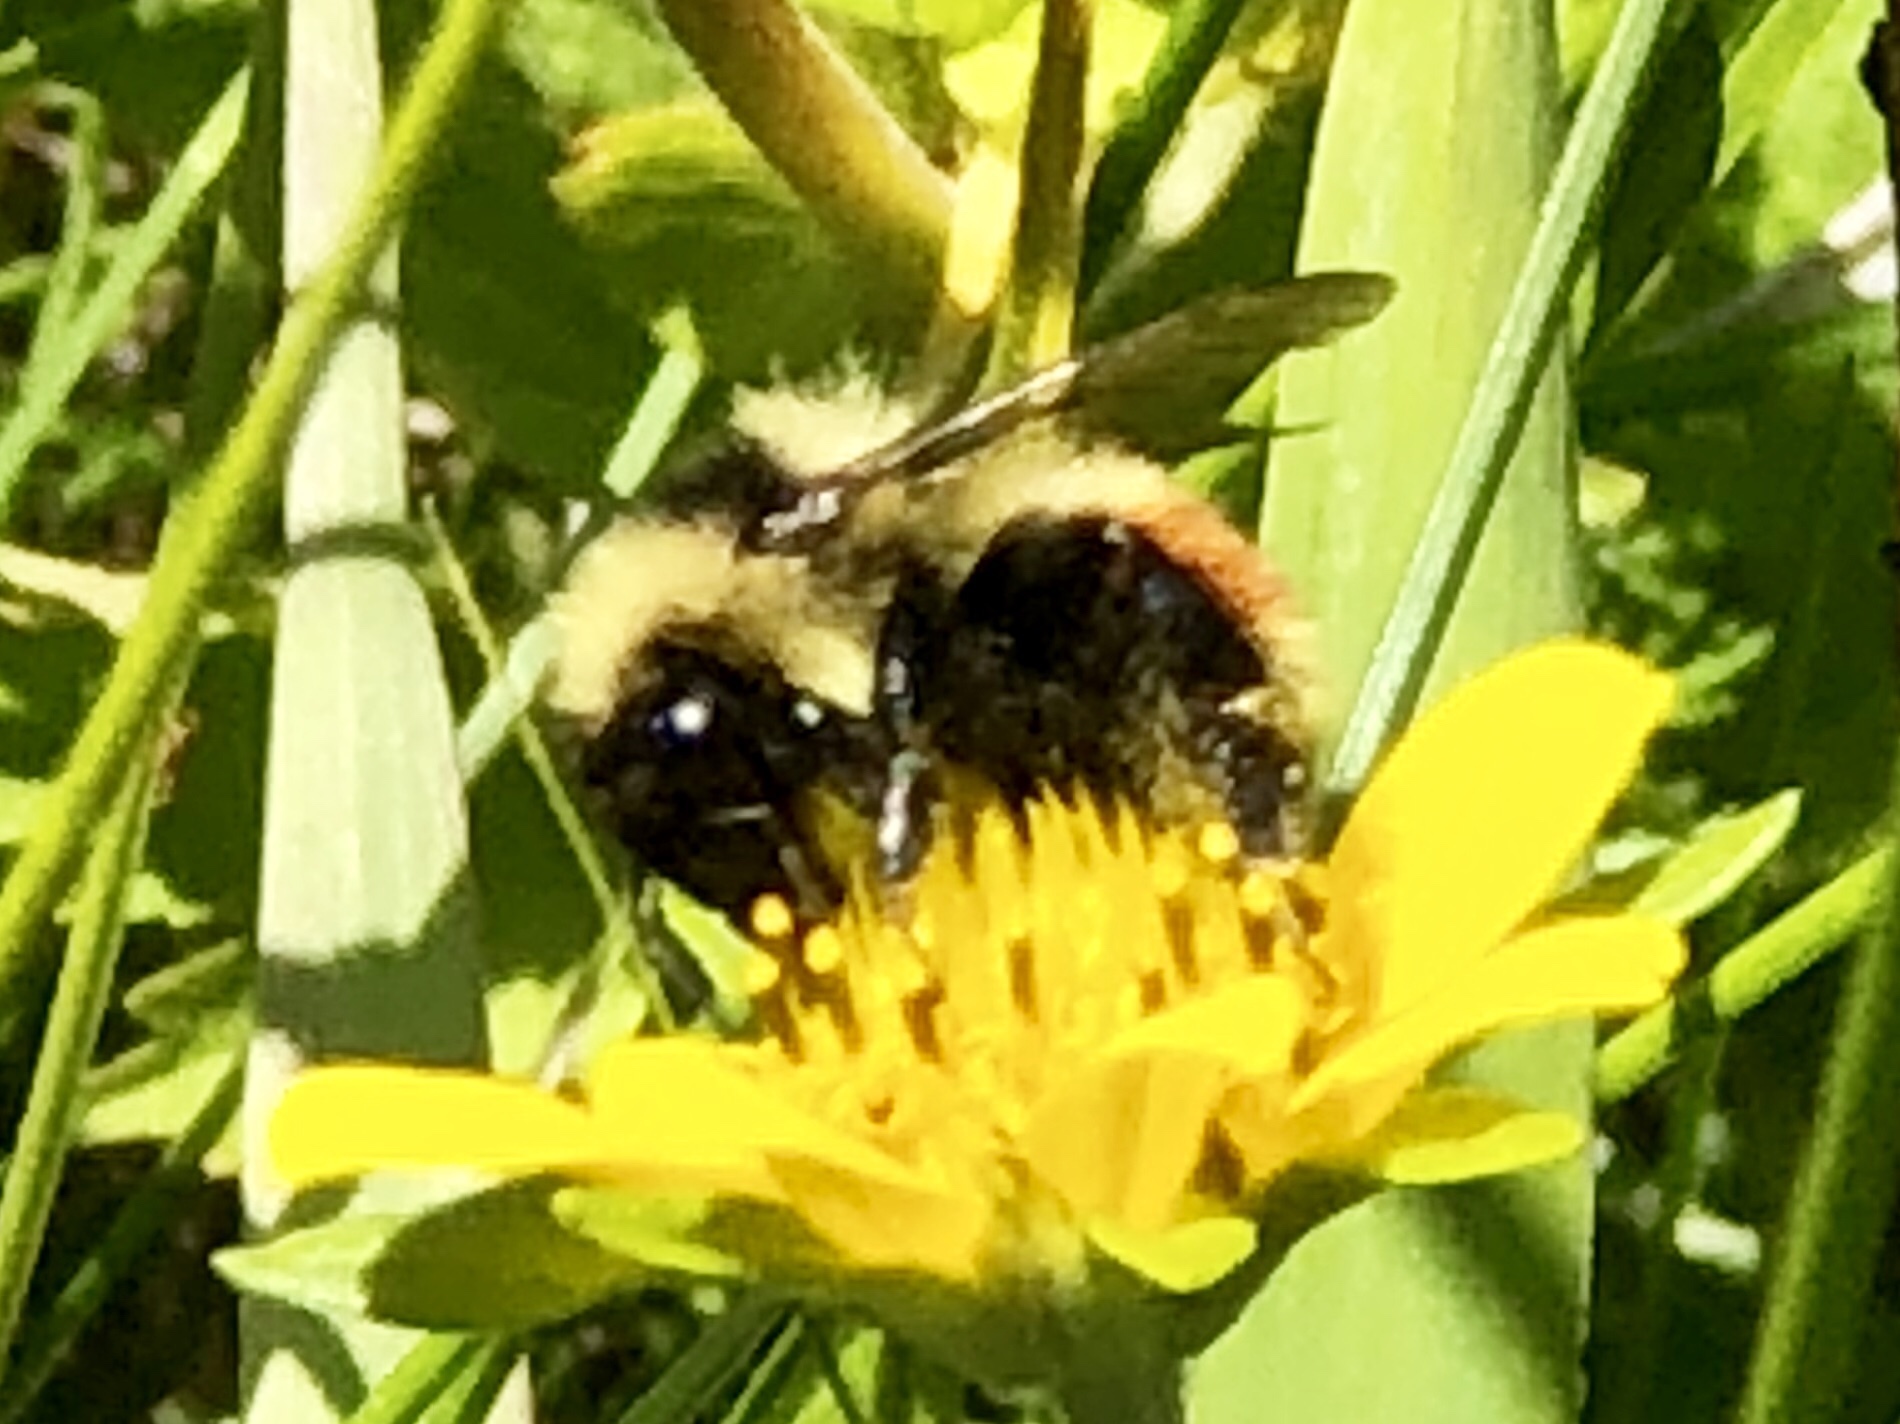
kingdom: Animalia
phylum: Arthropoda
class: Insecta
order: Hymenoptera
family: Apidae
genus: Bombus
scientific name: Bombus
